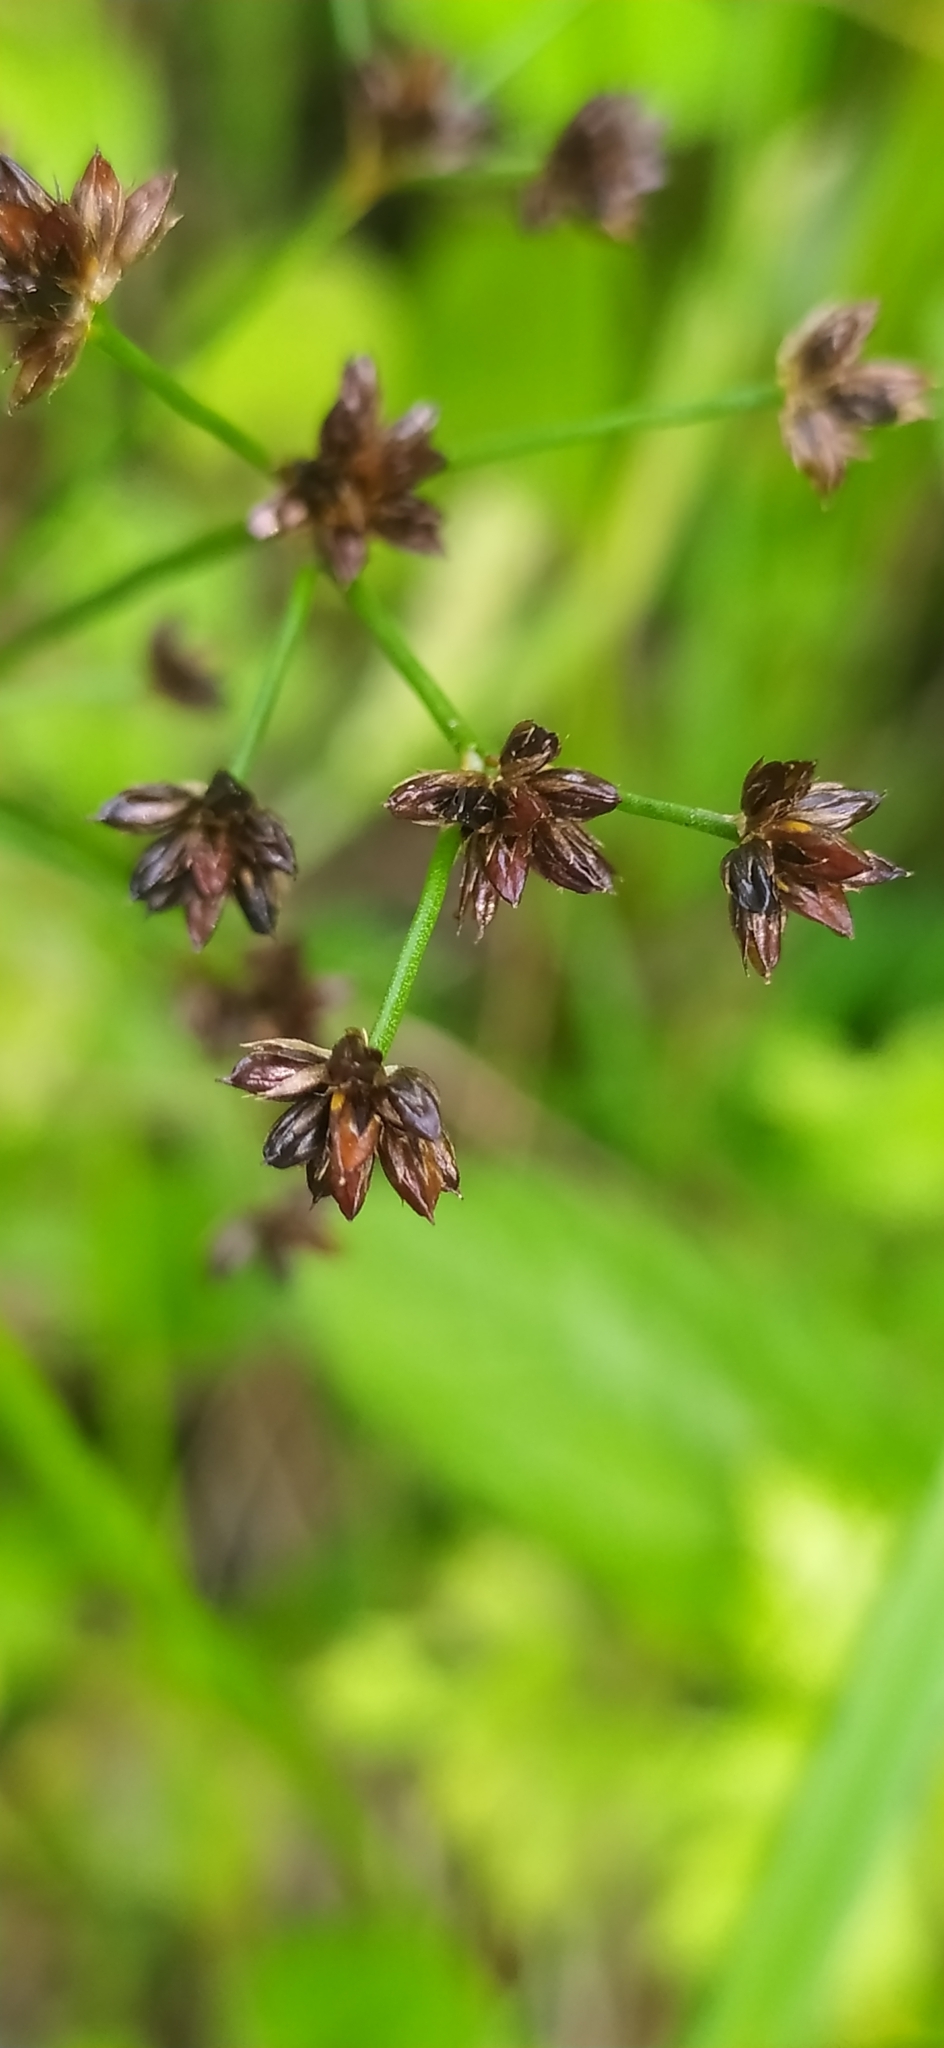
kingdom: Plantae
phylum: Tracheophyta
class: Liliopsida
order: Poales
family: Juncaceae
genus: Juncus
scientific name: Juncus articulatus
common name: Jointed rush
